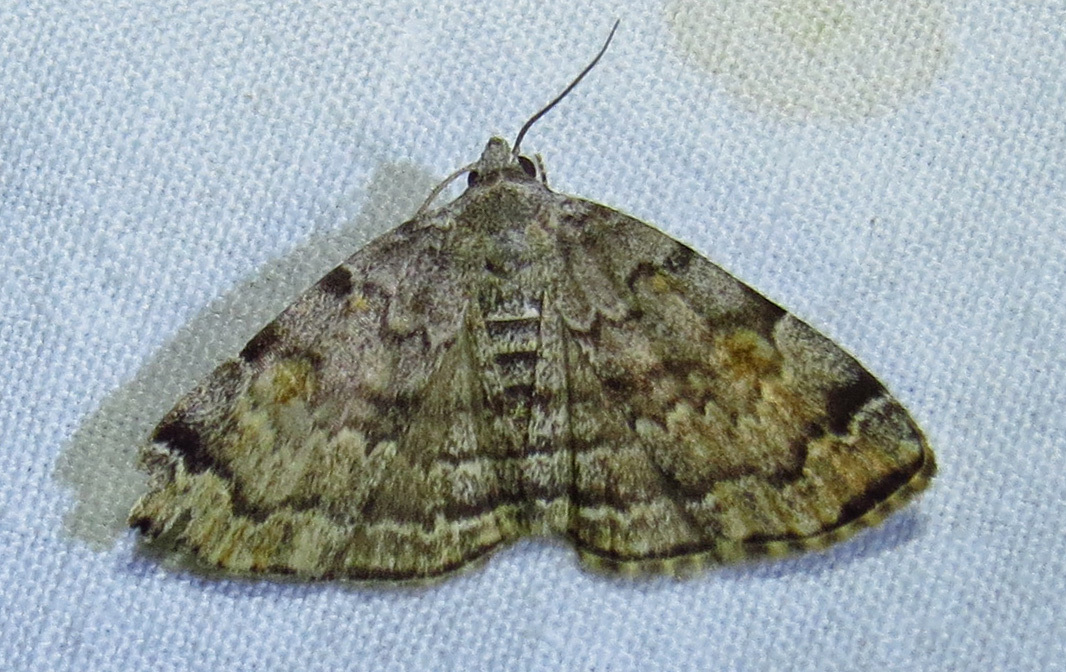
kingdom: Animalia
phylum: Arthropoda
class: Insecta
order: Lepidoptera
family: Erebidae
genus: Idia
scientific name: Idia americalis
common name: American idia moth
